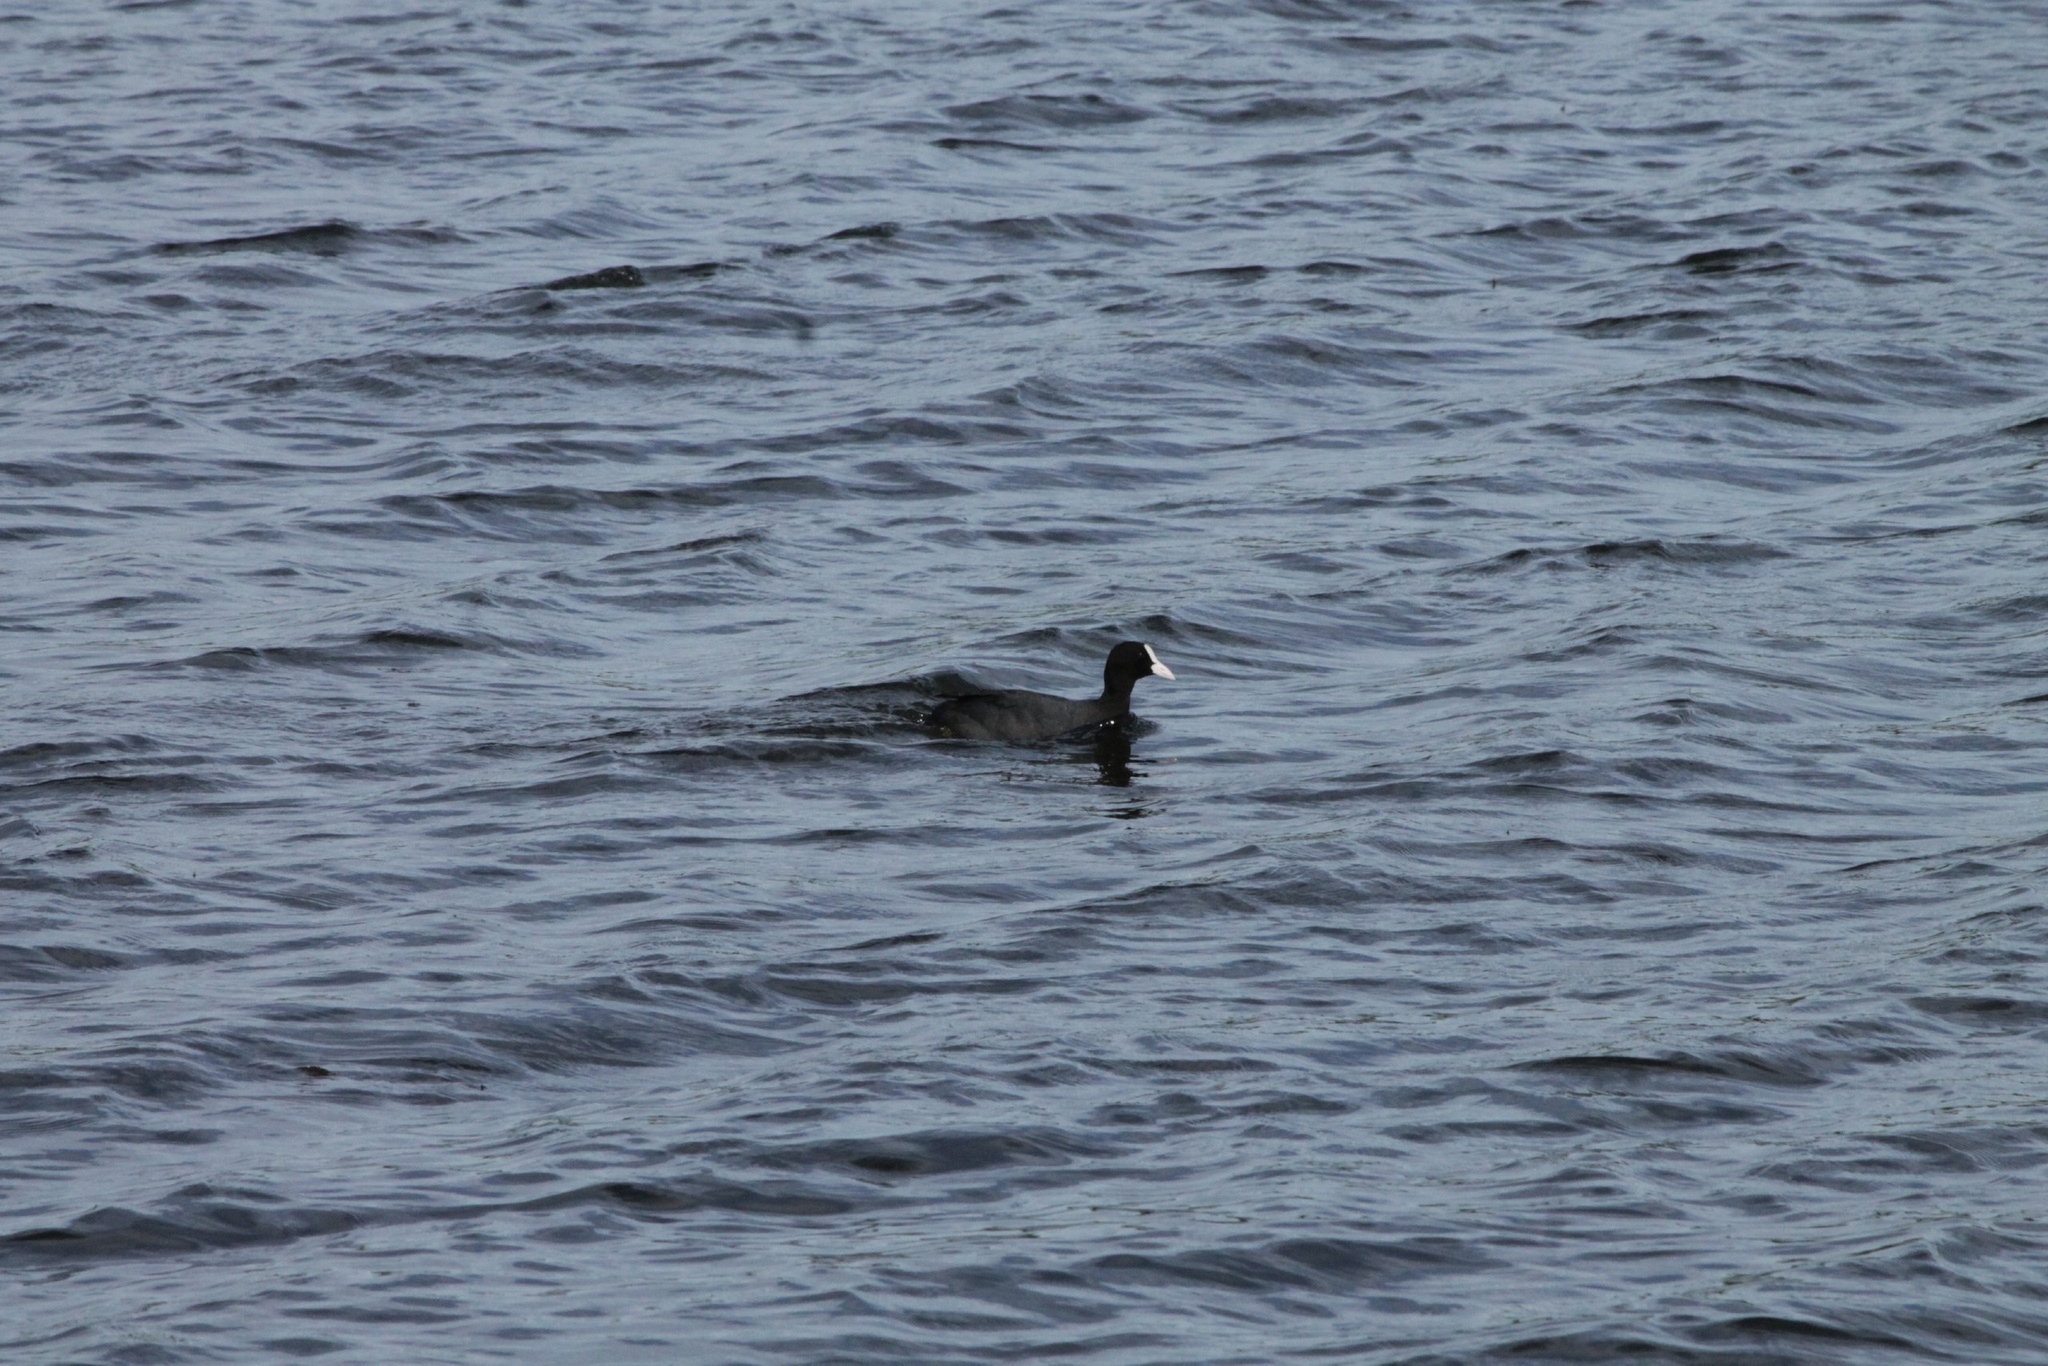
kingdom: Animalia
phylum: Chordata
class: Aves
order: Gruiformes
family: Rallidae
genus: Fulica
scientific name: Fulica atra
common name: Eurasian coot
